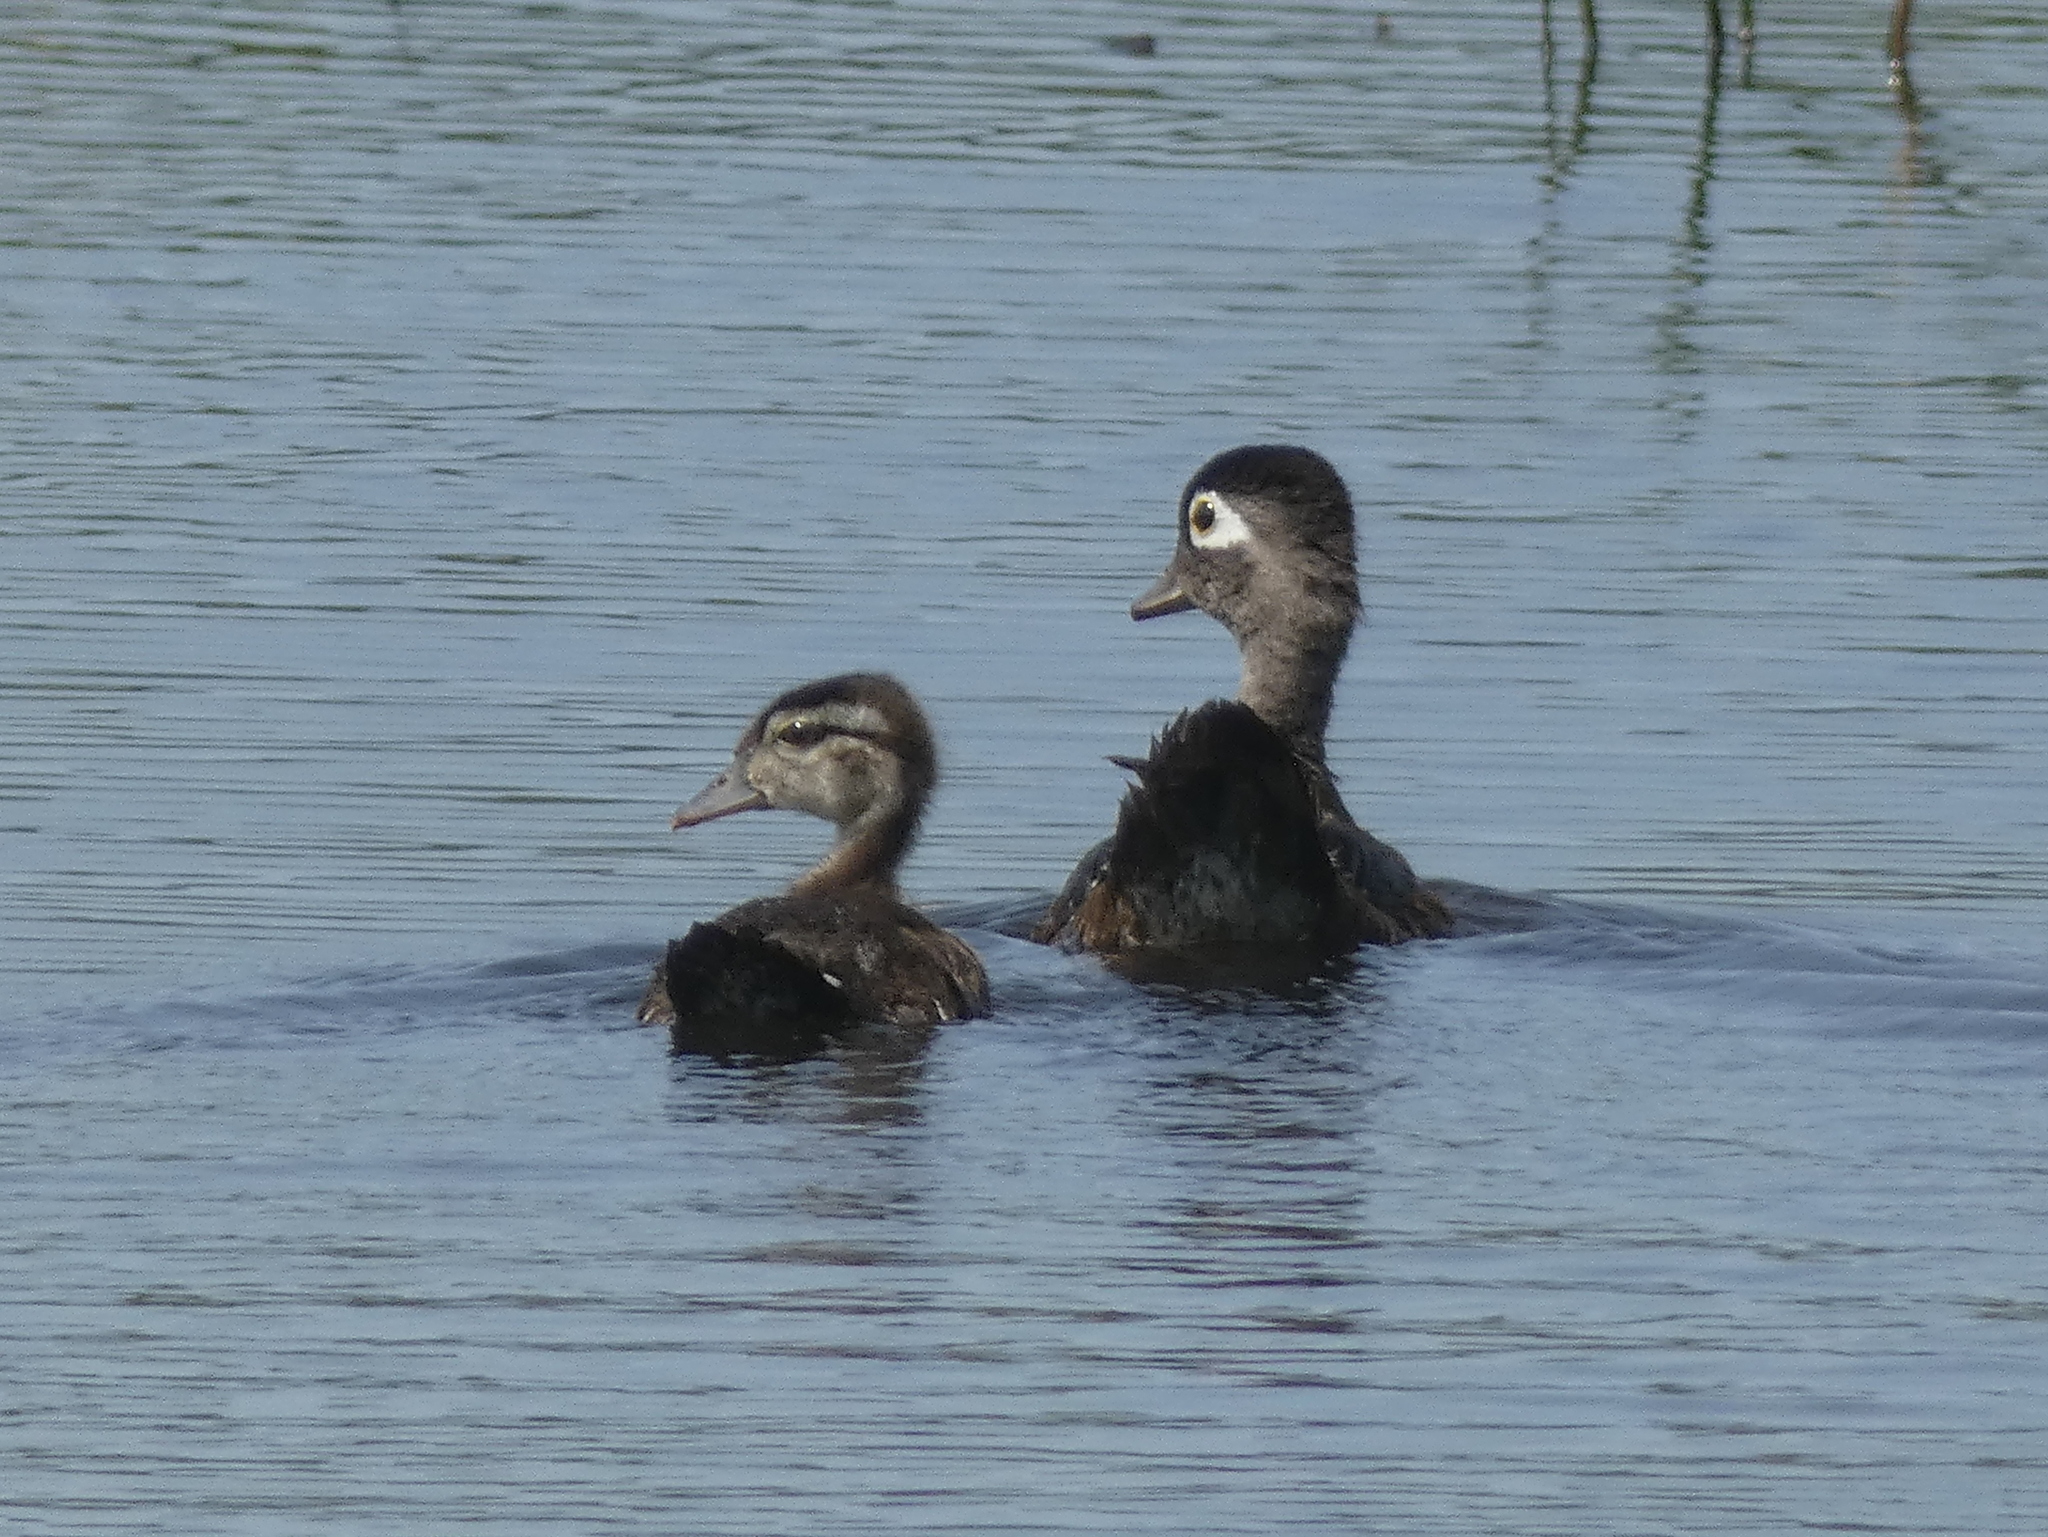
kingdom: Animalia
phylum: Chordata
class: Aves
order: Anseriformes
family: Anatidae
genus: Aix
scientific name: Aix sponsa
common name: Wood duck
